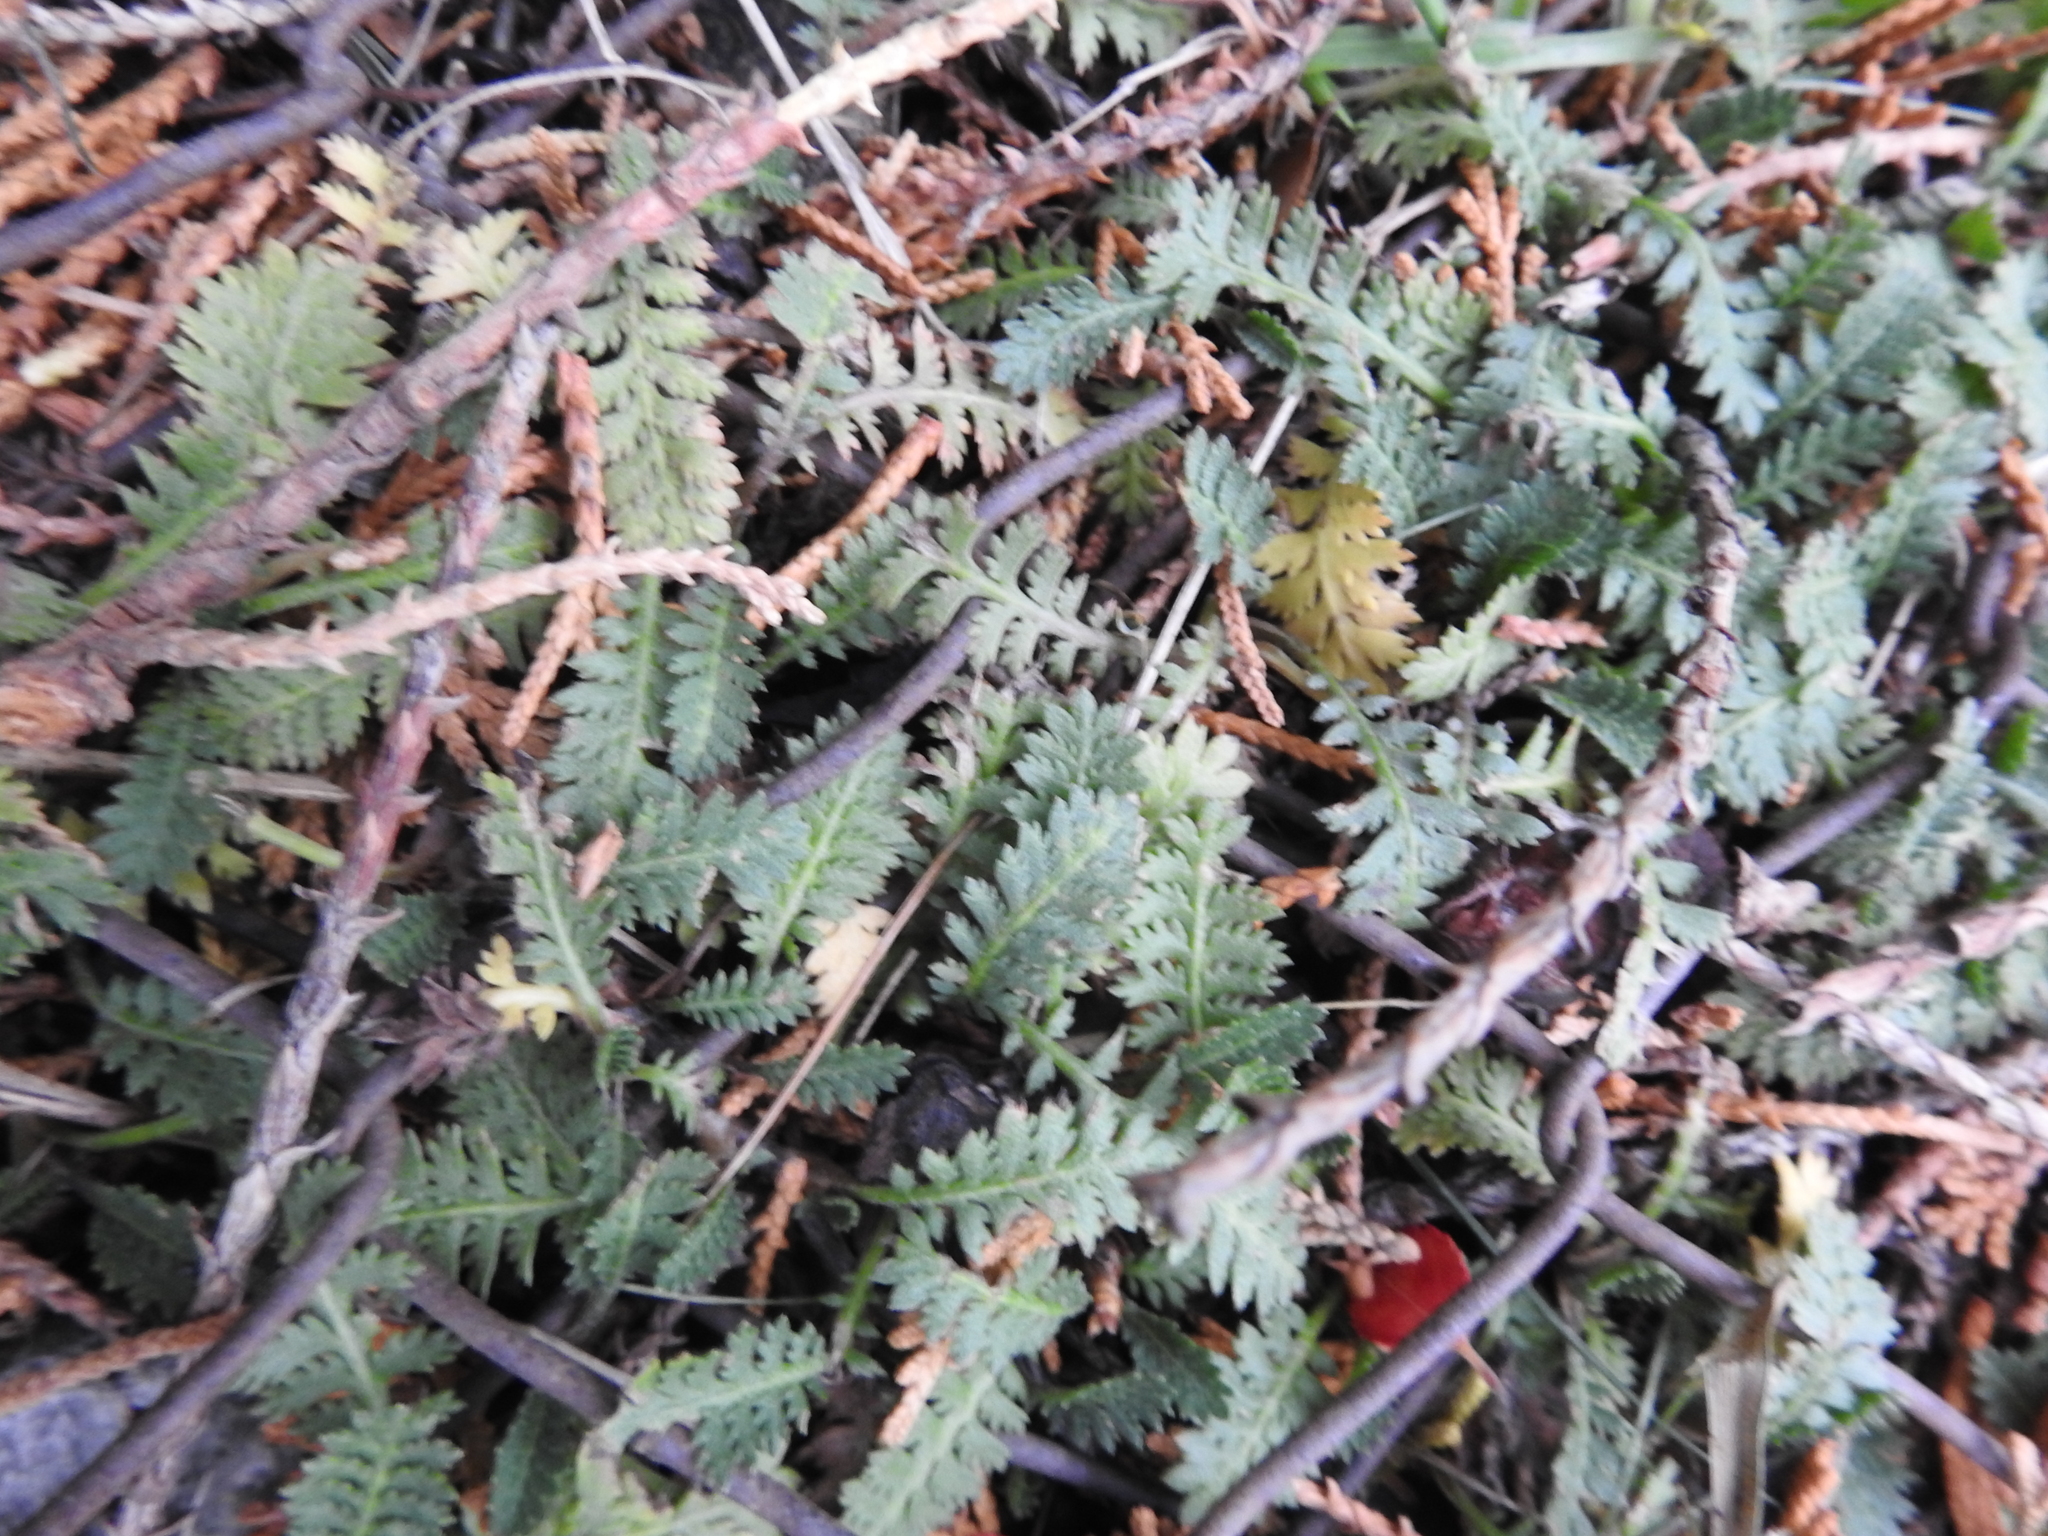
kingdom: Plantae
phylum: Tracheophyta
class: Magnoliopsida
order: Asterales
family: Asteraceae
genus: Leptinella
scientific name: Leptinella scariosa
